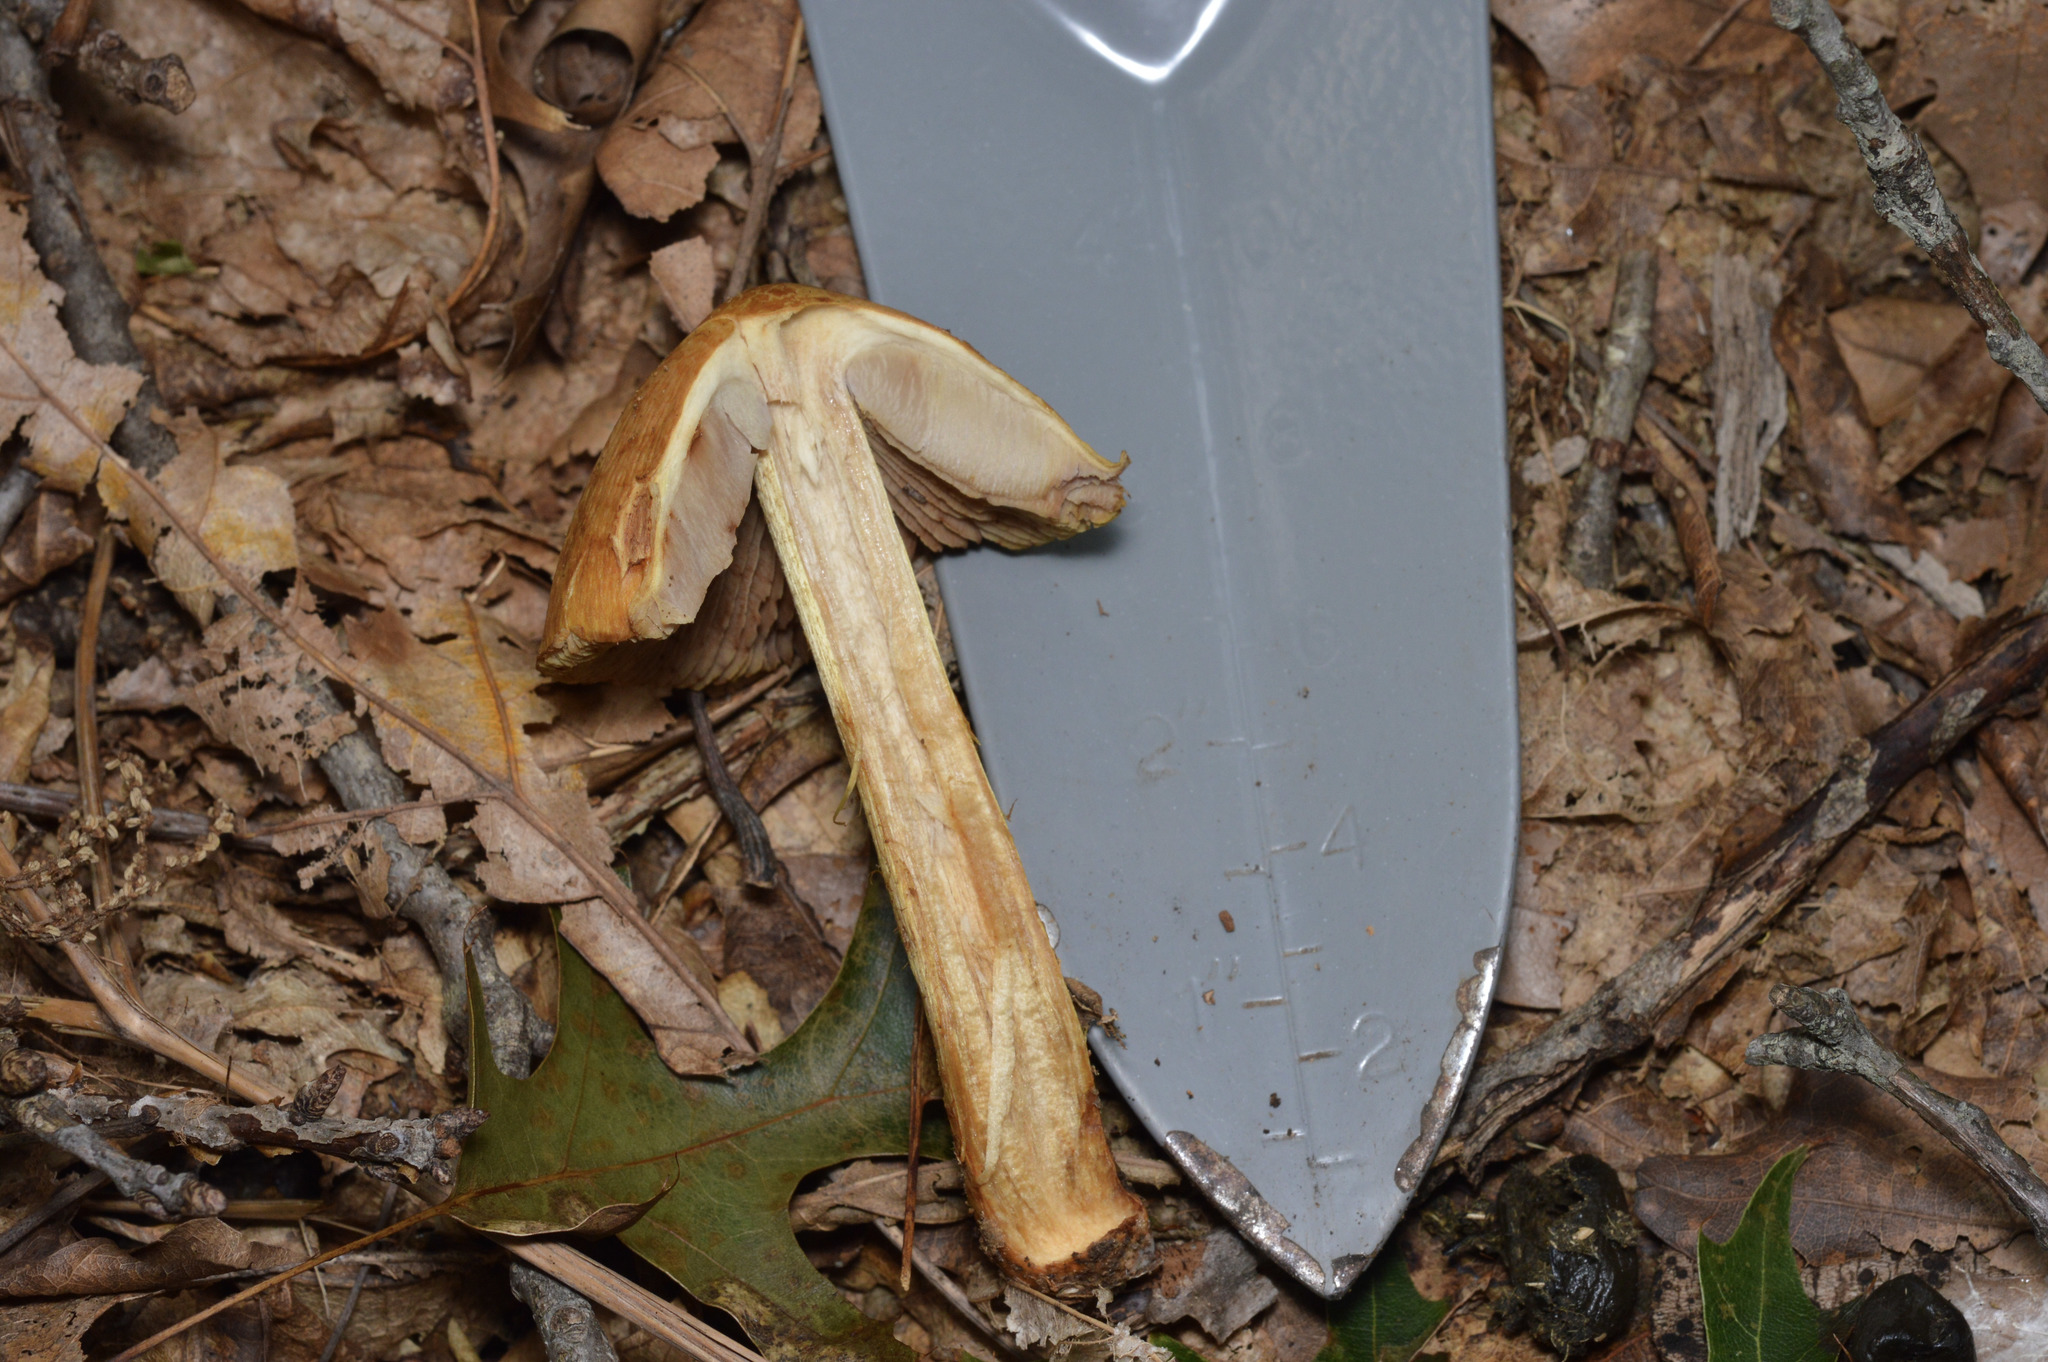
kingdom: Fungi
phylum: Basidiomycota
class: Agaricomycetes
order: Agaricales
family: Cortinariaceae
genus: Cortinarius
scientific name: Cortinarius corrugatus
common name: Wrinkled cortinarius
